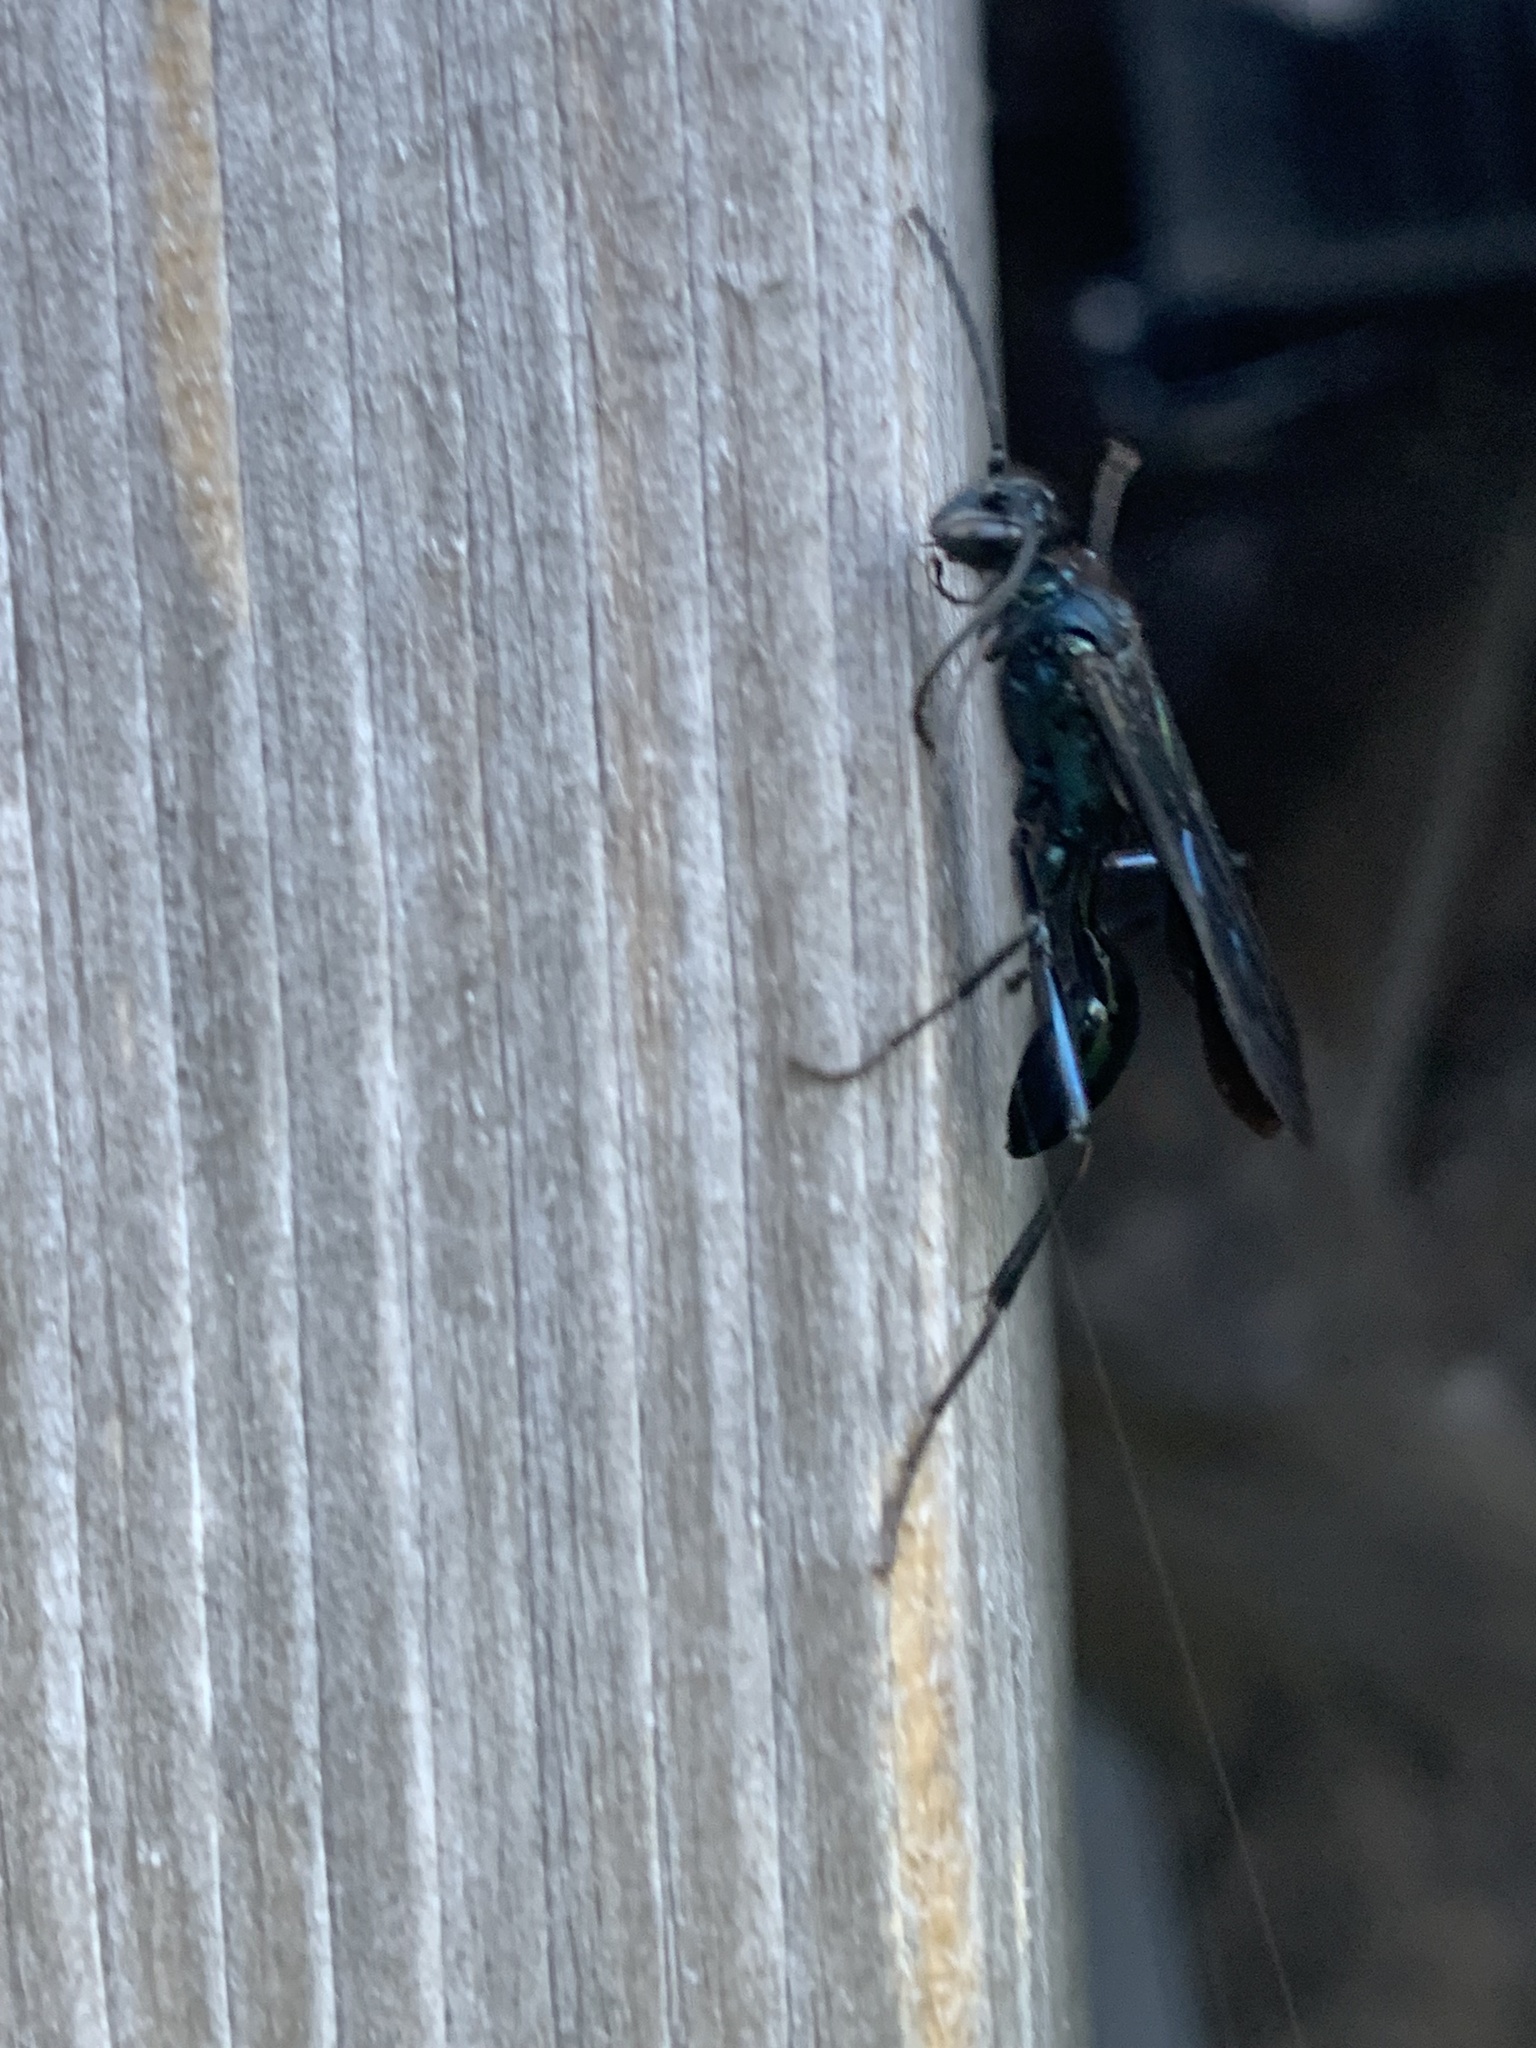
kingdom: Animalia
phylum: Arthropoda
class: Insecta
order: Hymenoptera
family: Sphecidae
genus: Chalybion
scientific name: Chalybion californicum
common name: Mud dauber
